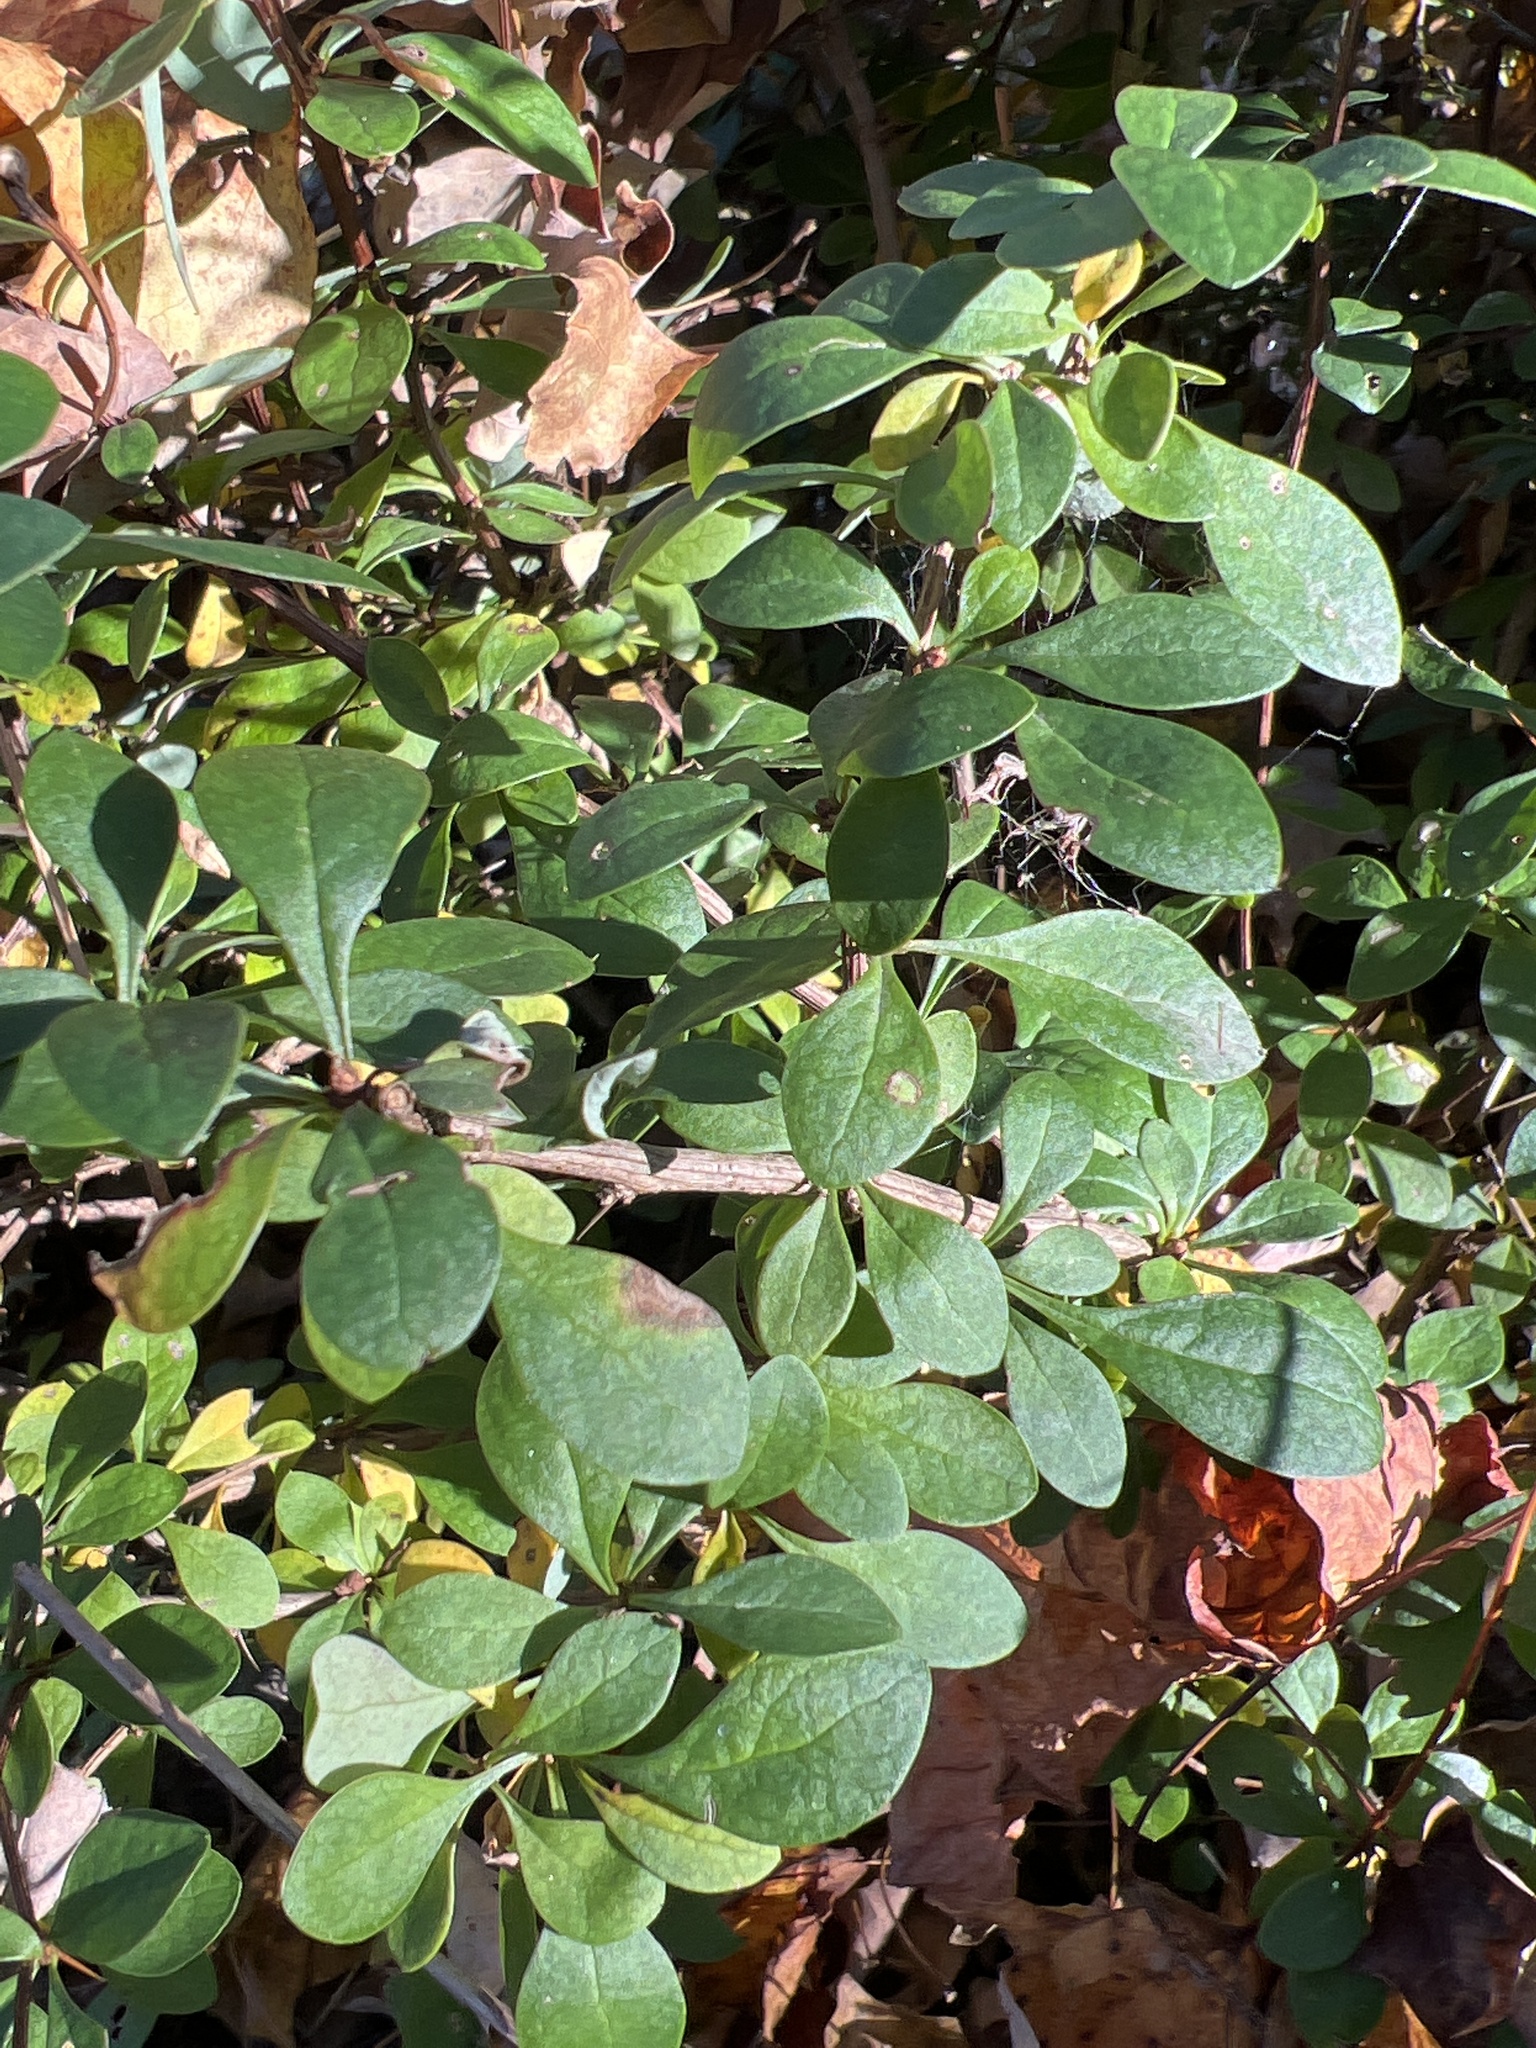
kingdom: Plantae
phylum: Tracheophyta
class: Magnoliopsida
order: Ranunculales
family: Berberidaceae
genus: Berberis
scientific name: Berberis thunbergii
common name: Japanese barberry
